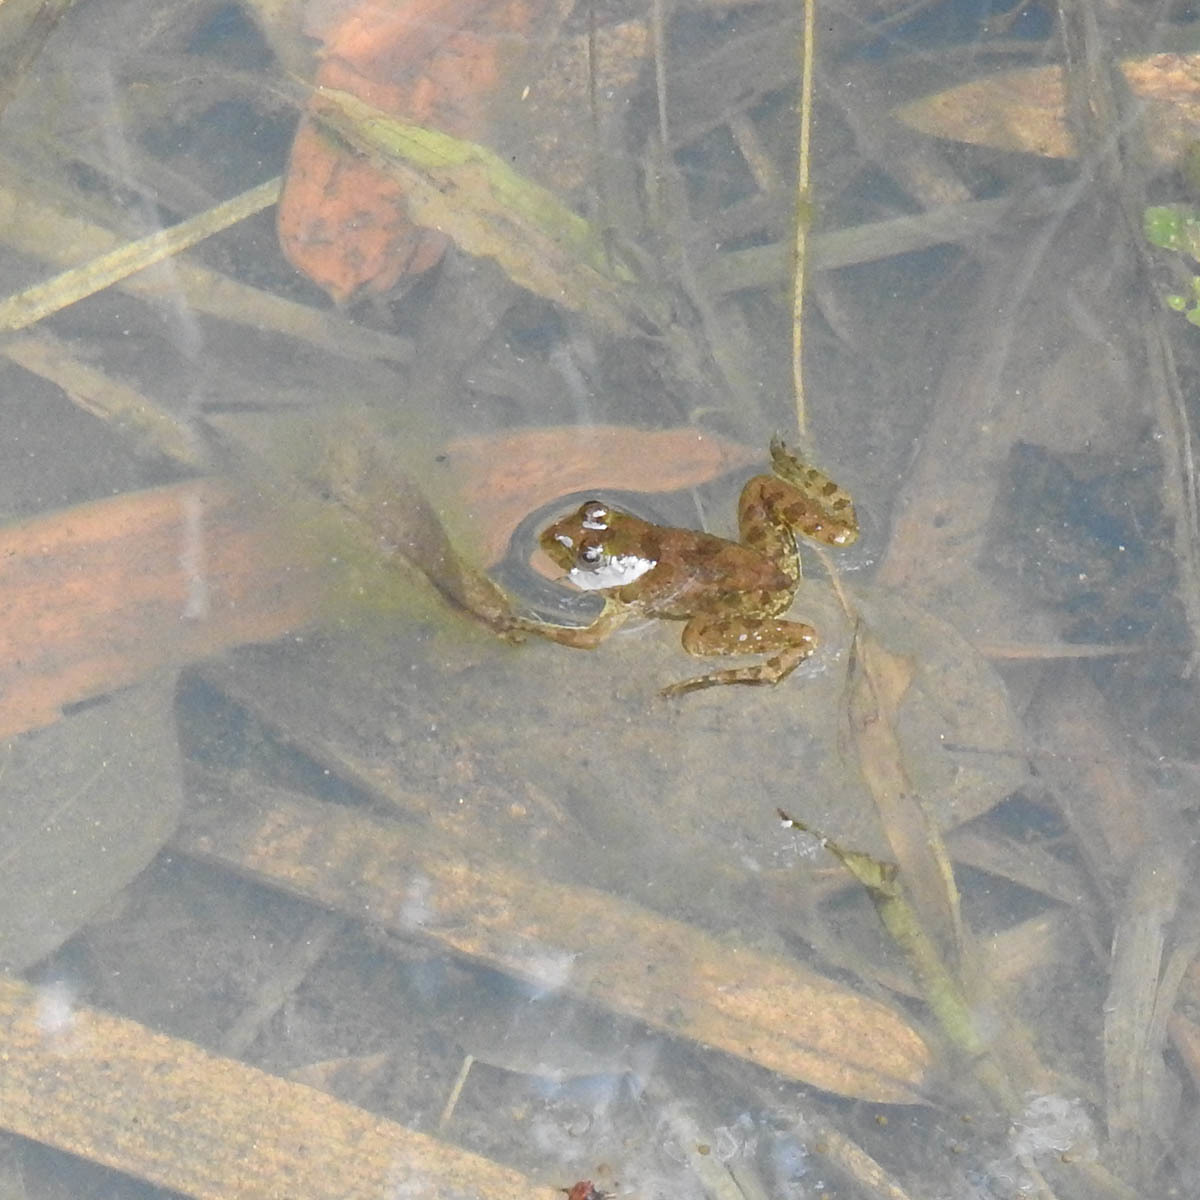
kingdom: Animalia
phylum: Chordata
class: Amphibia
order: Anura
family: Dicroglossidae
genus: Euphlyctis
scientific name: Euphlyctis cyanophlyctis
